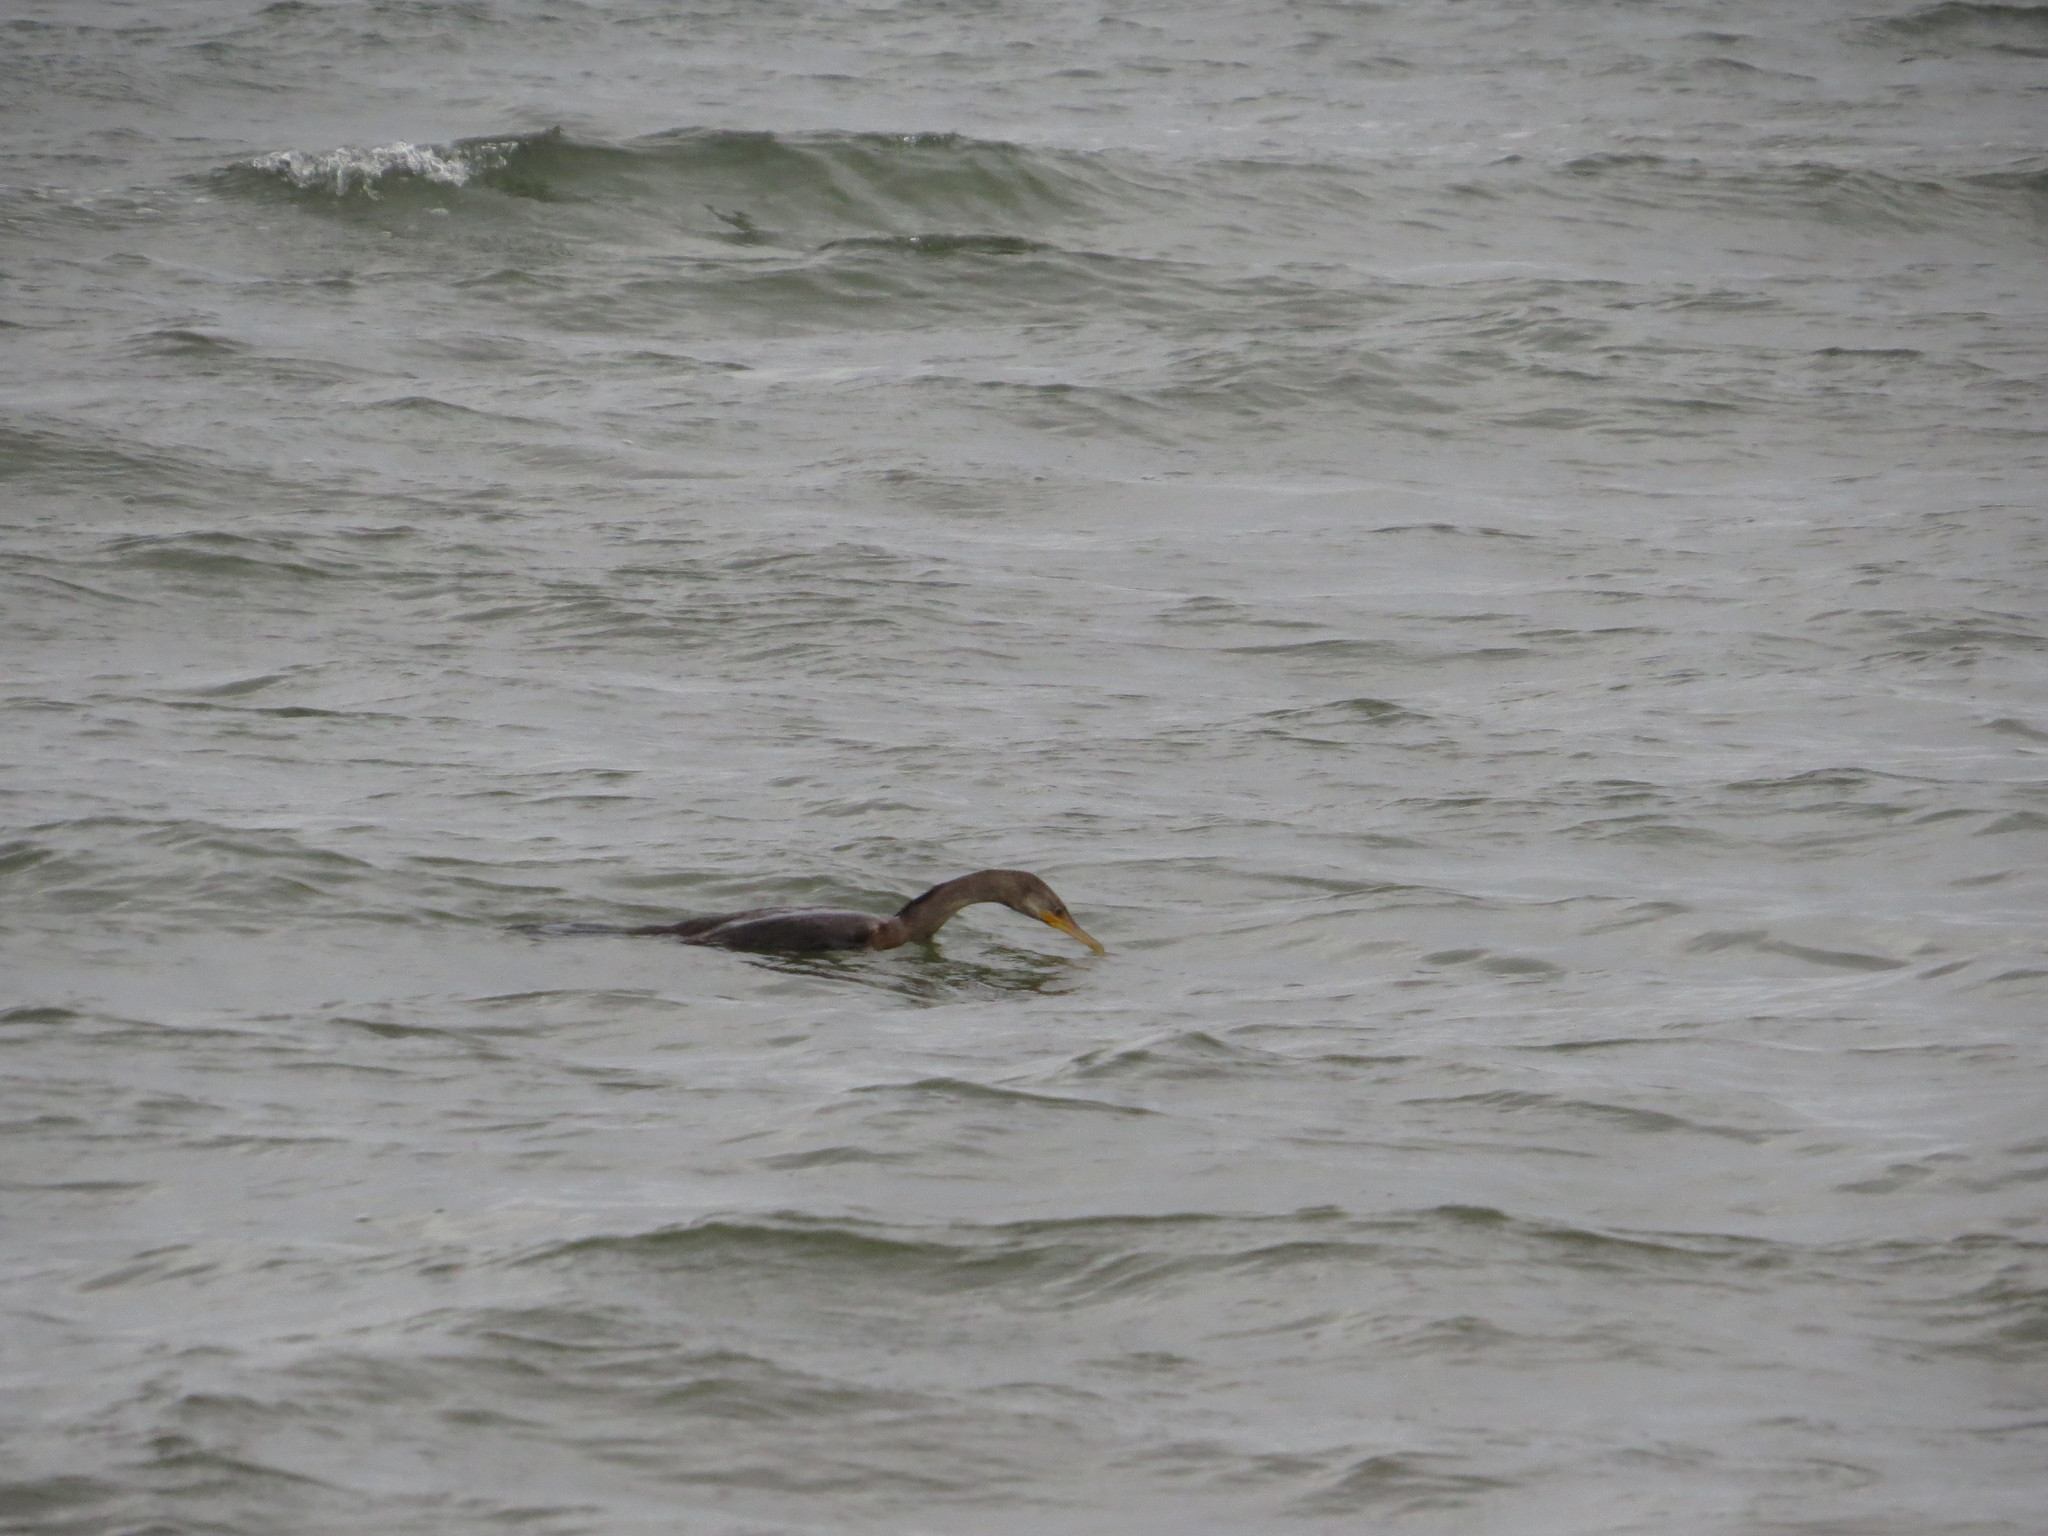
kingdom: Animalia
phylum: Chordata
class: Aves
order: Suliformes
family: Phalacrocoracidae
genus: Phalacrocorax
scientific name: Phalacrocorax brasilianus
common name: Neotropic cormorant
